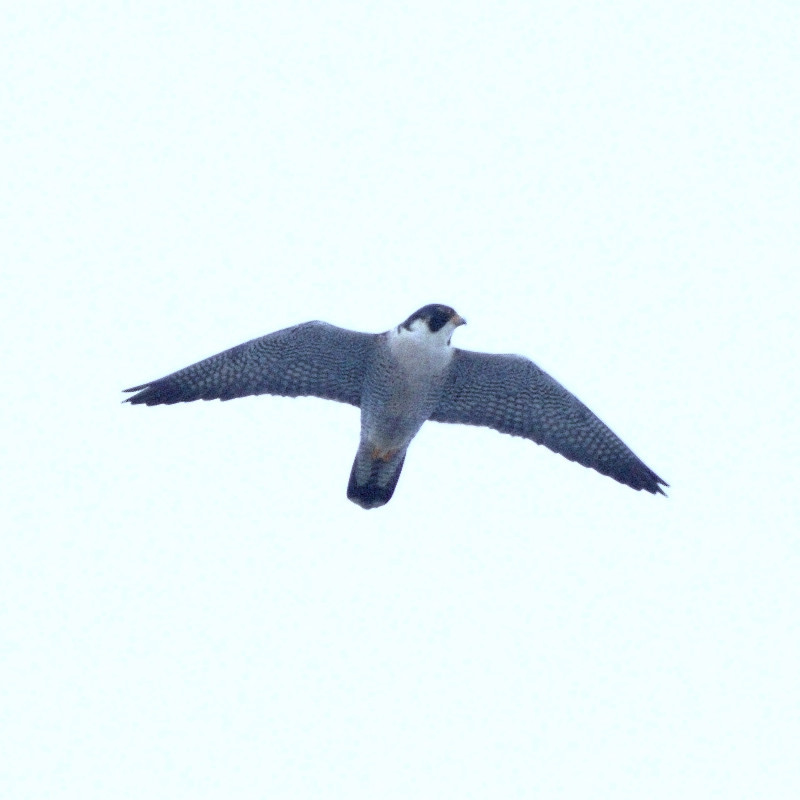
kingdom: Animalia
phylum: Chordata
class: Aves
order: Falconiformes
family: Falconidae
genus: Falco
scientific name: Falco peregrinus
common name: Peregrine falcon
